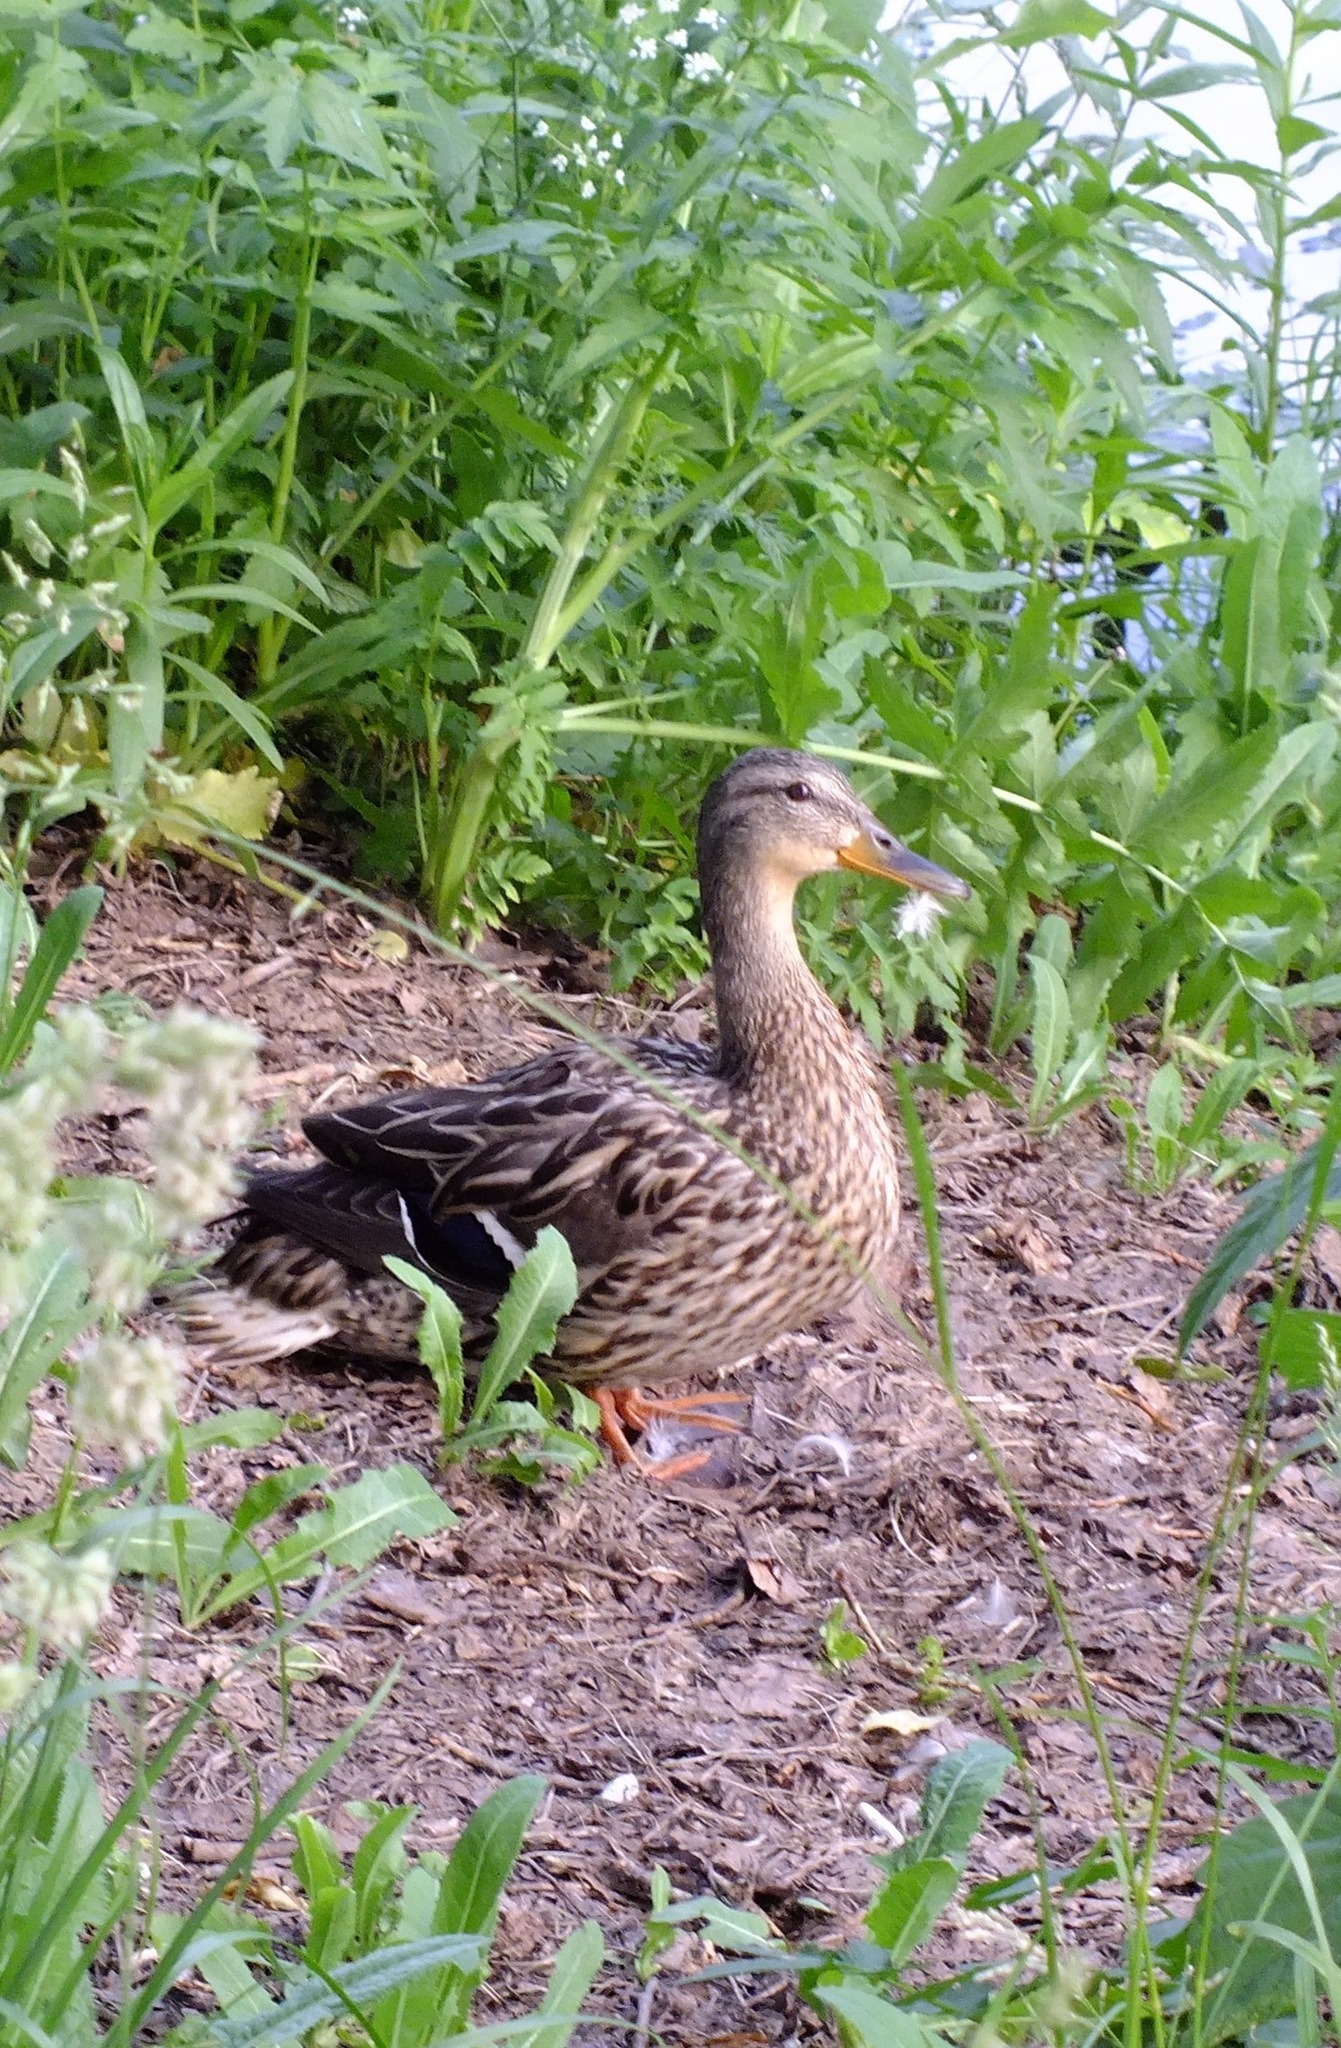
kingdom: Animalia
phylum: Chordata
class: Aves
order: Anseriformes
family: Anatidae
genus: Anas
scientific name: Anas platyrhynchos
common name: Mallard
